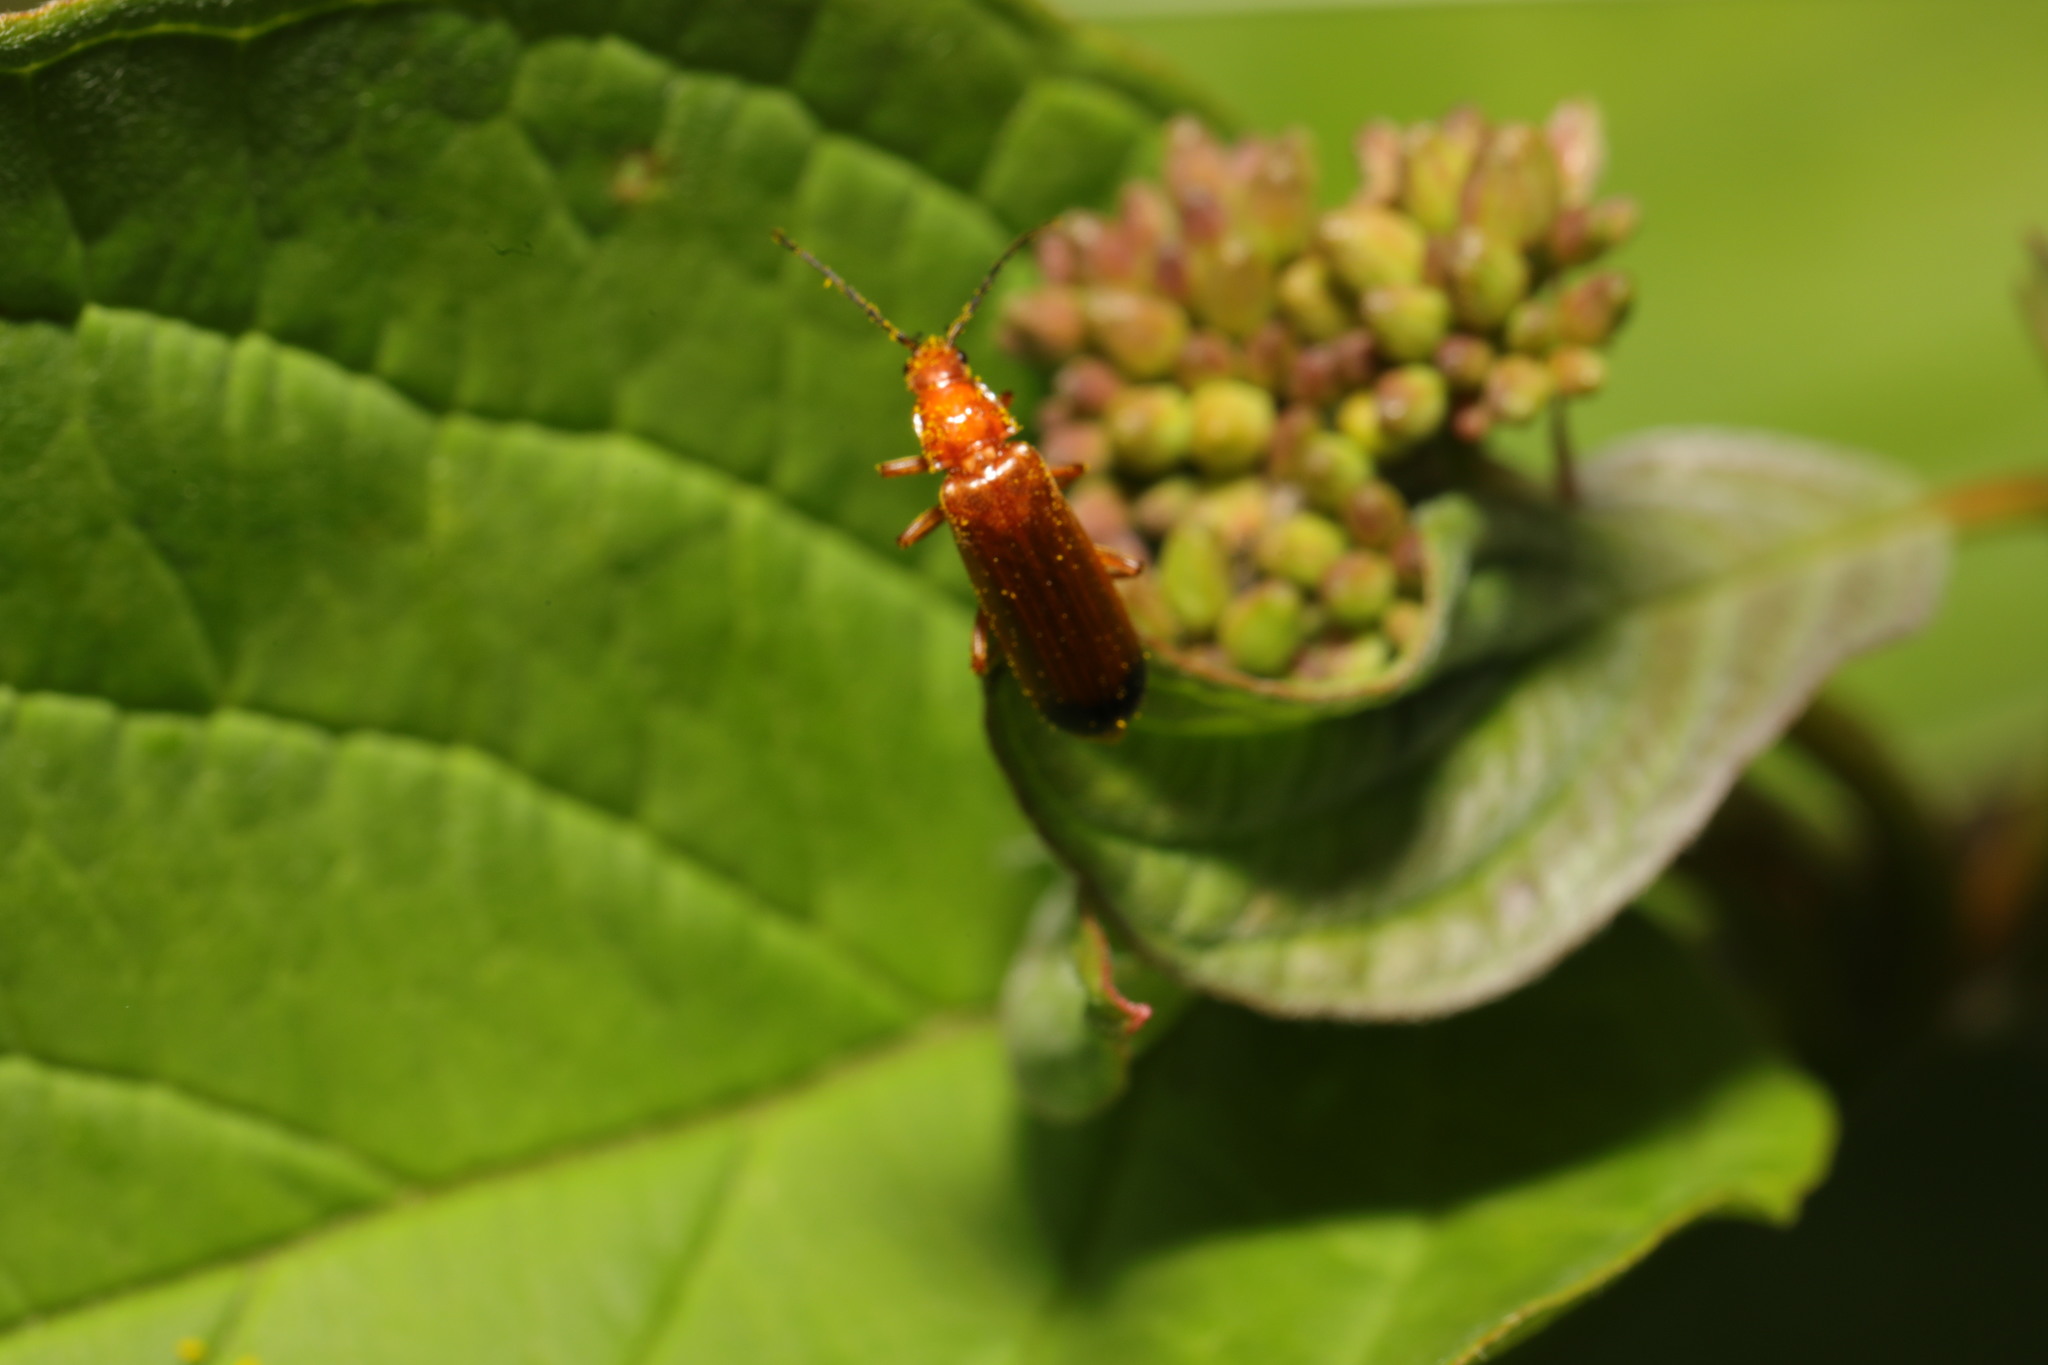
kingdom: Animalia
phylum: Arthropoda
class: Insecta
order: Coleoptera
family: Cantharidae
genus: Rhagonycha
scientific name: Rhagonycha fulva
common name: Common red soldier beetle
